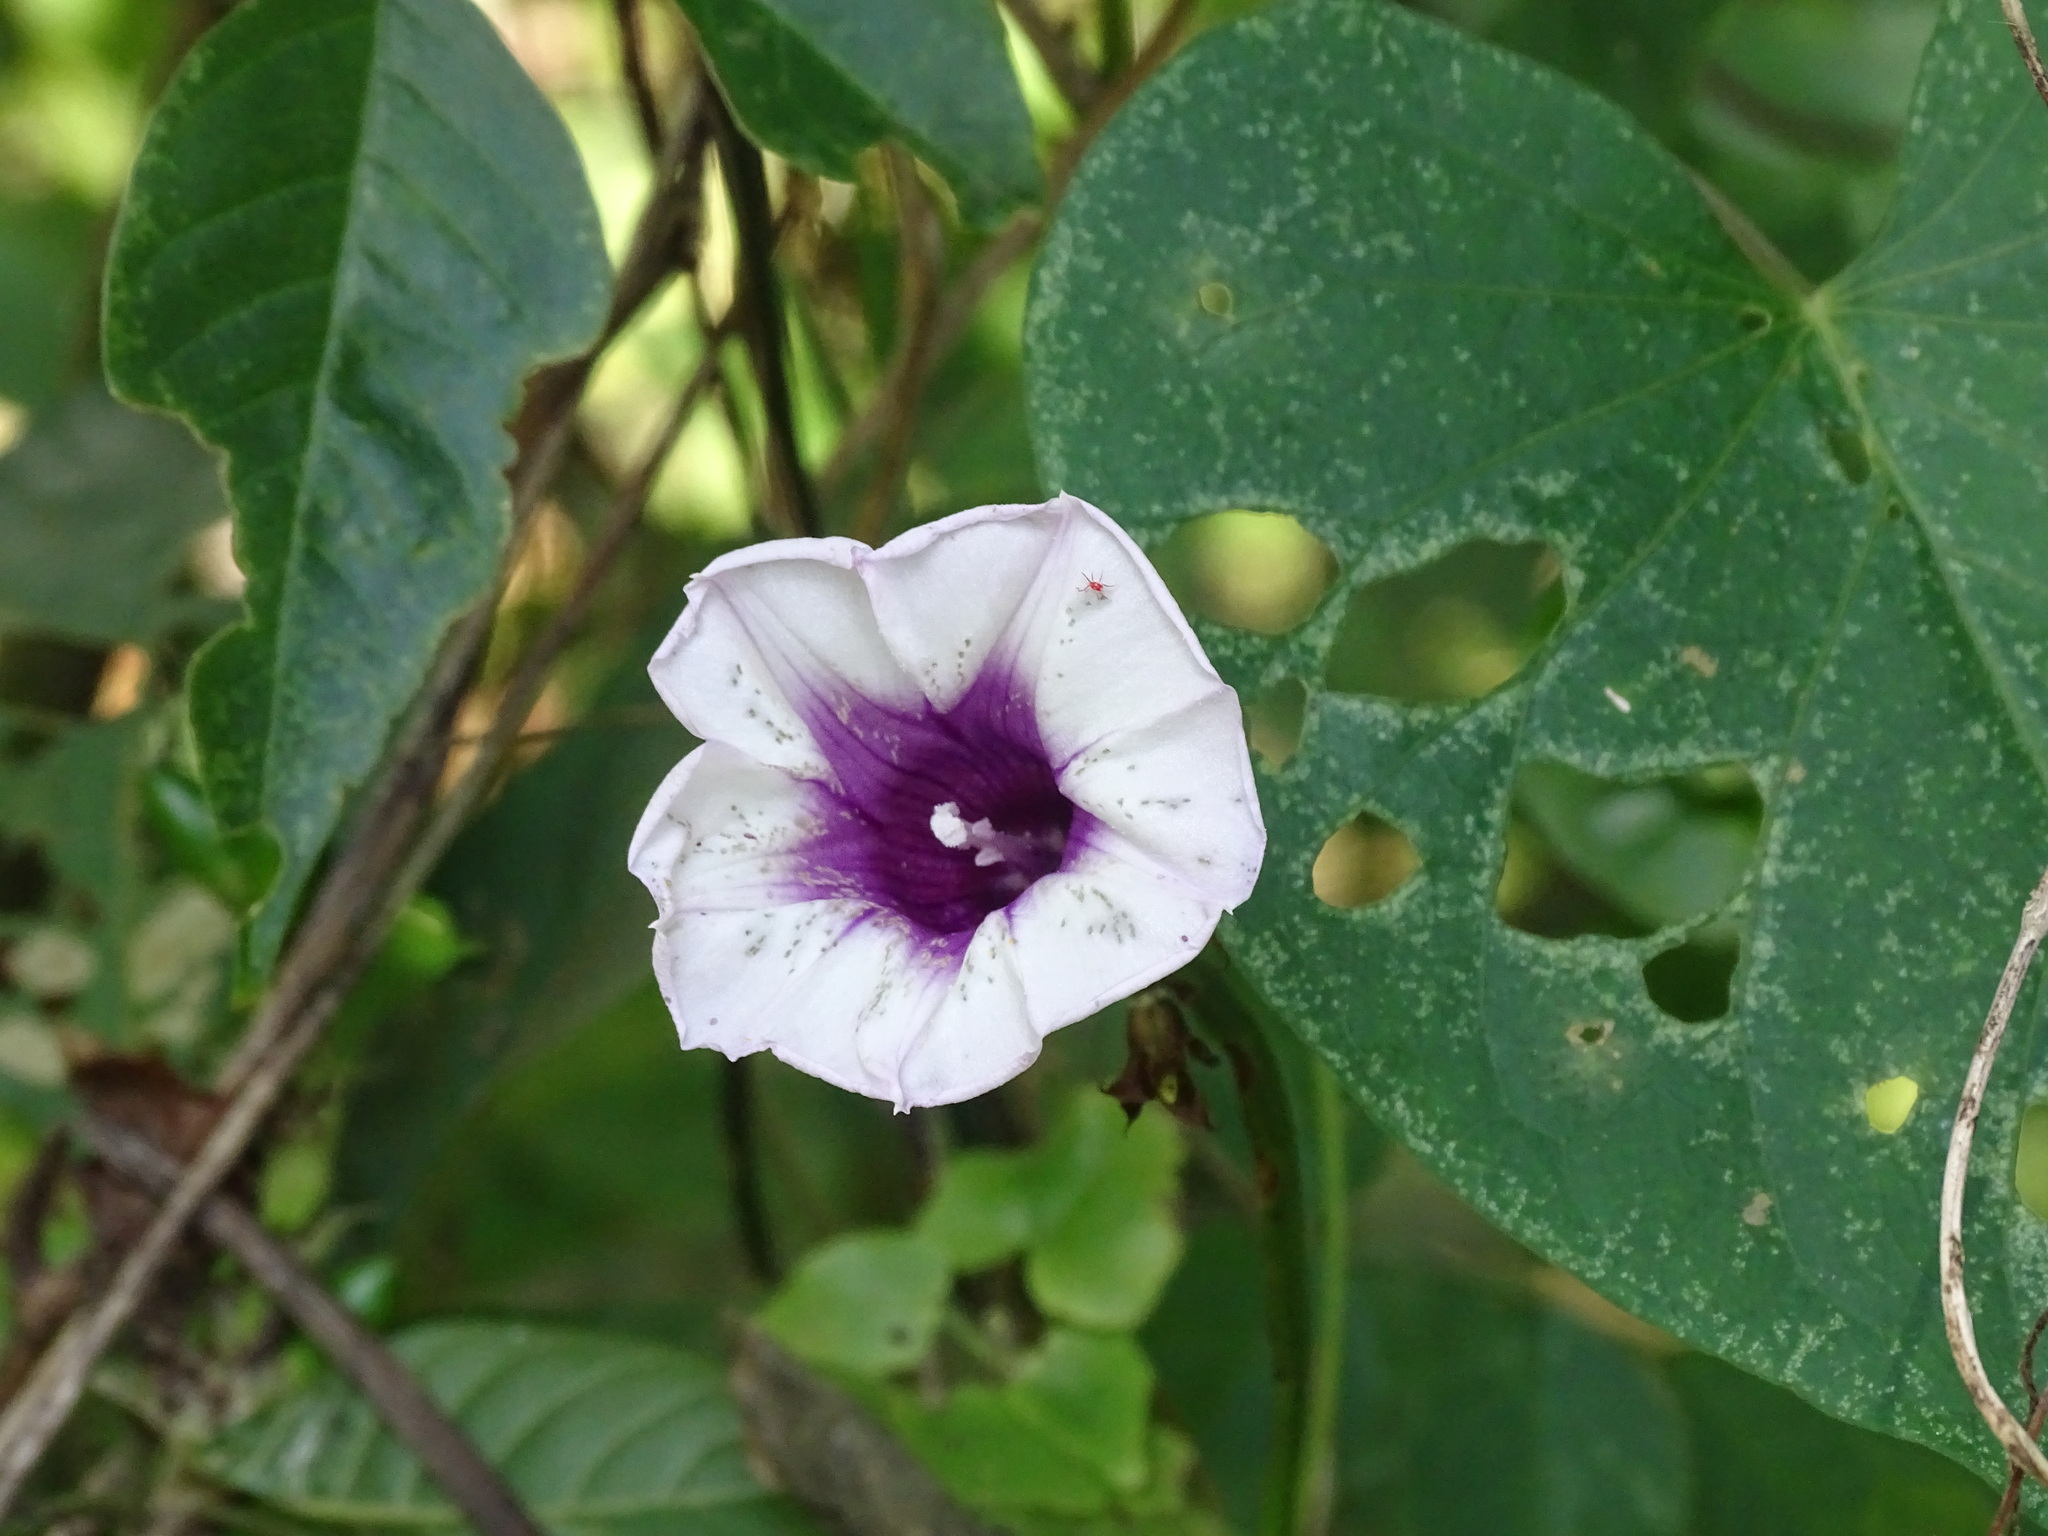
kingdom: Plantae
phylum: Tracheophyta
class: Magnoliopsida
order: Solanales
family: Convolvulaceae
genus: Ipomoea
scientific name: Ipomoea batatas
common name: Sweet-potato
